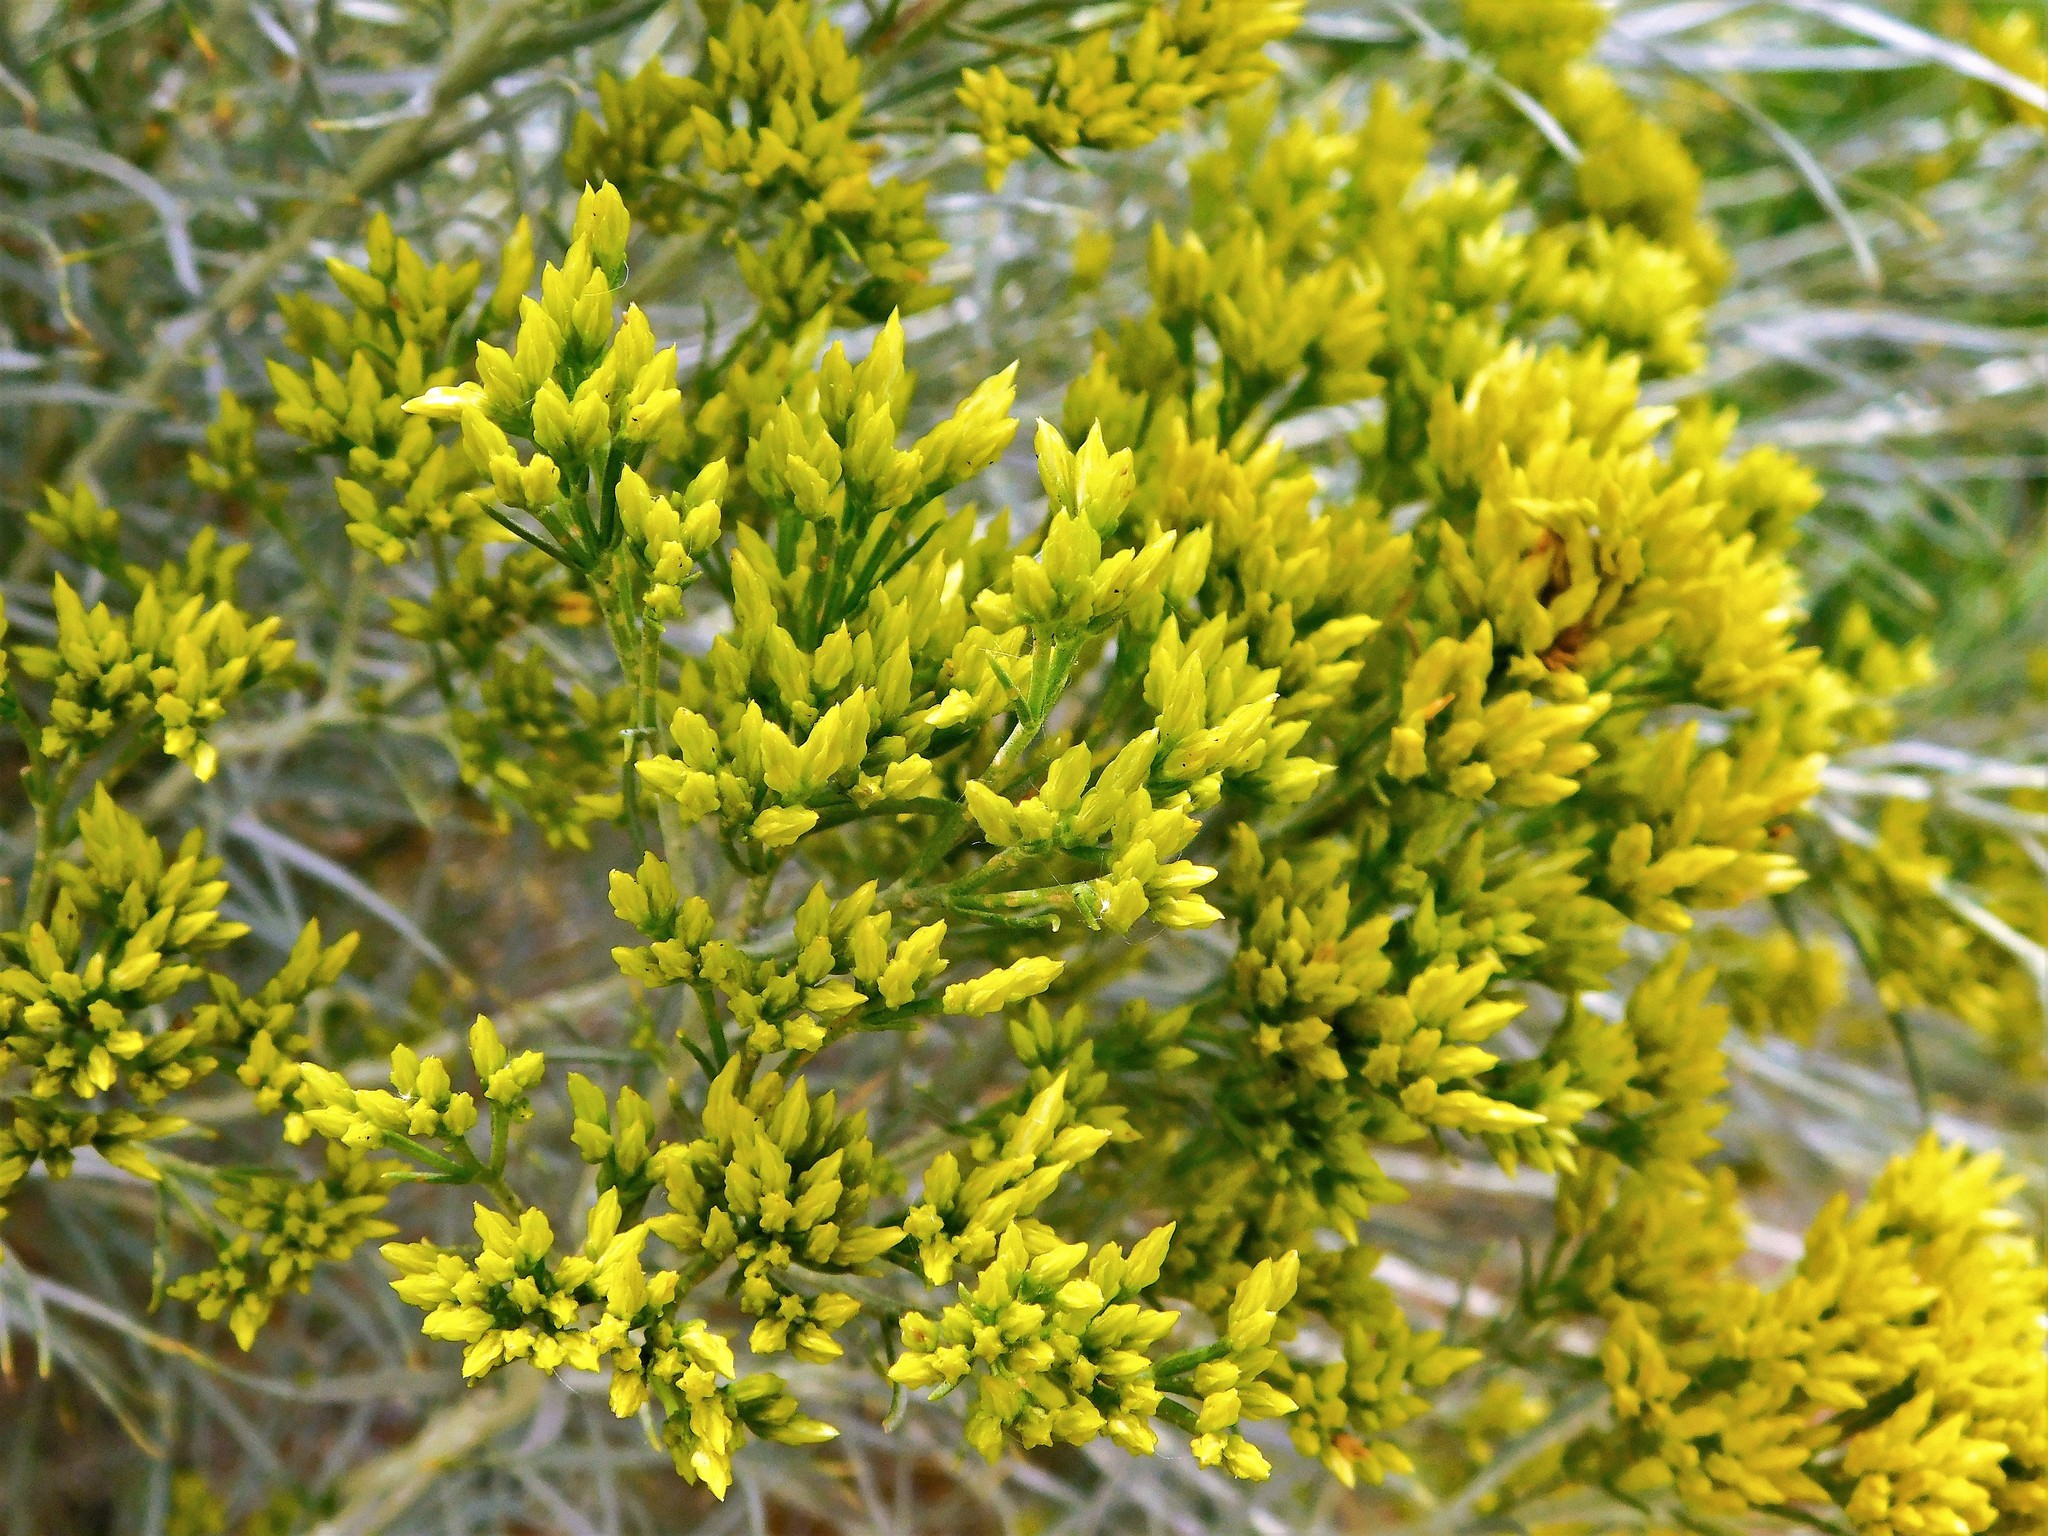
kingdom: Plantae
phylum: Tracheophyta
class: Magnoliopsida
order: Asterales
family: Asteraceae
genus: Chrysothamnus
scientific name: Chrysothamnus viscidiflorus
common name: Yellow rabbitbrush
